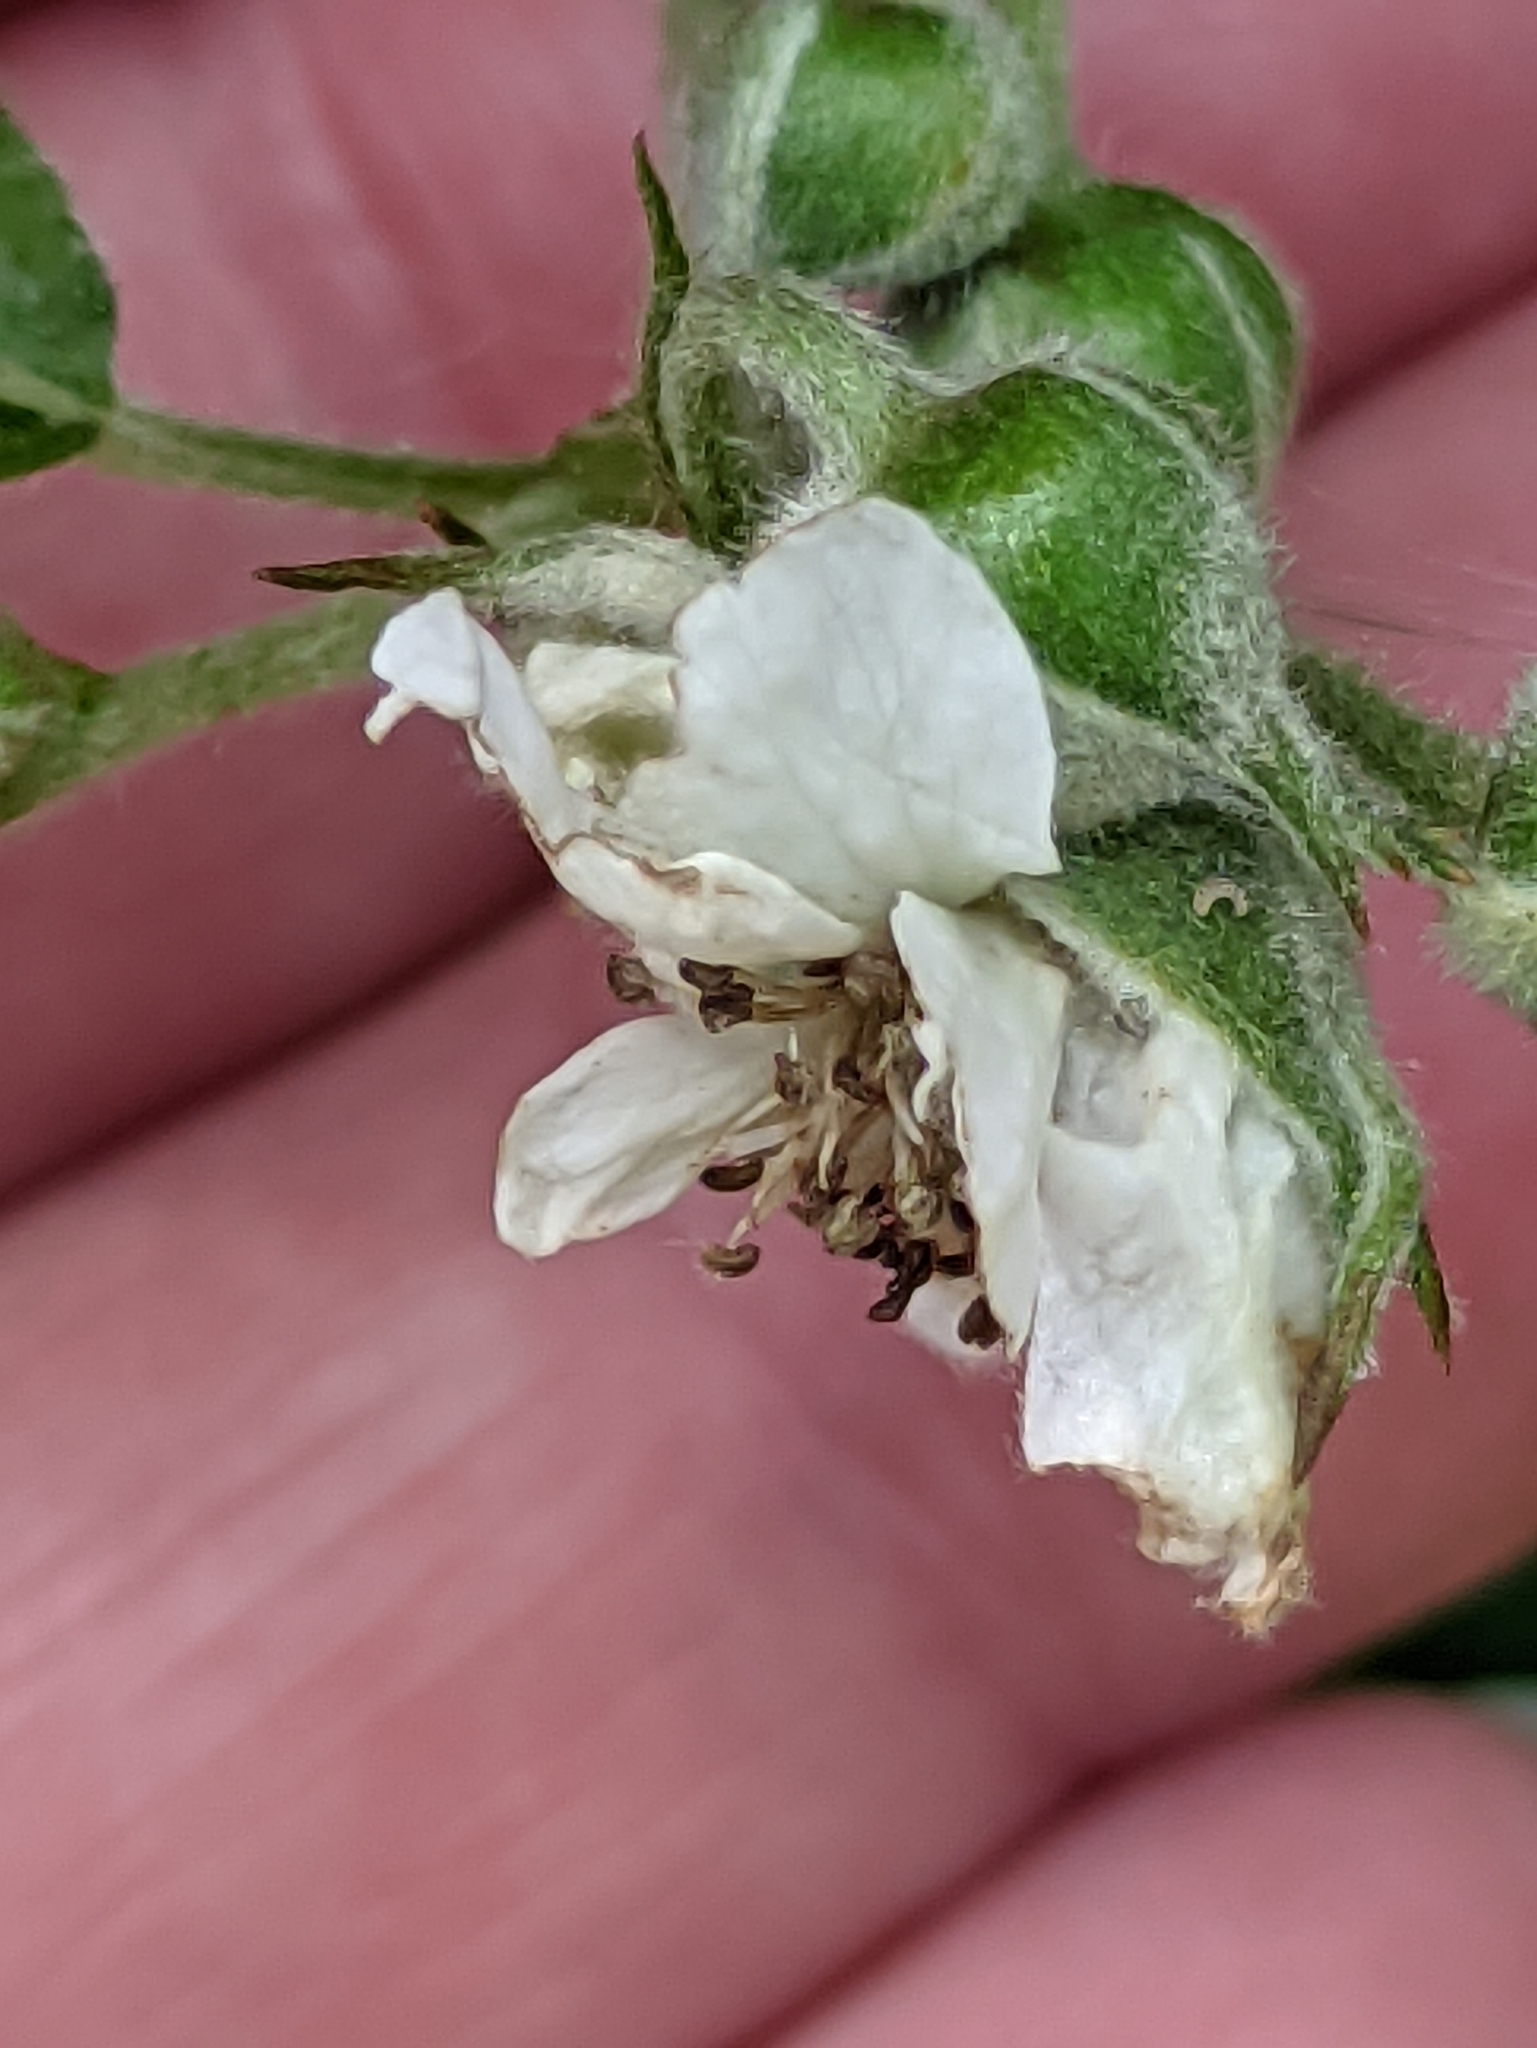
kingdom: Plantae
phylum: Tracheophyta
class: Magnoliopsida
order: Rosales
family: Rosaceae
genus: Rubus
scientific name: Rubus polonicus
